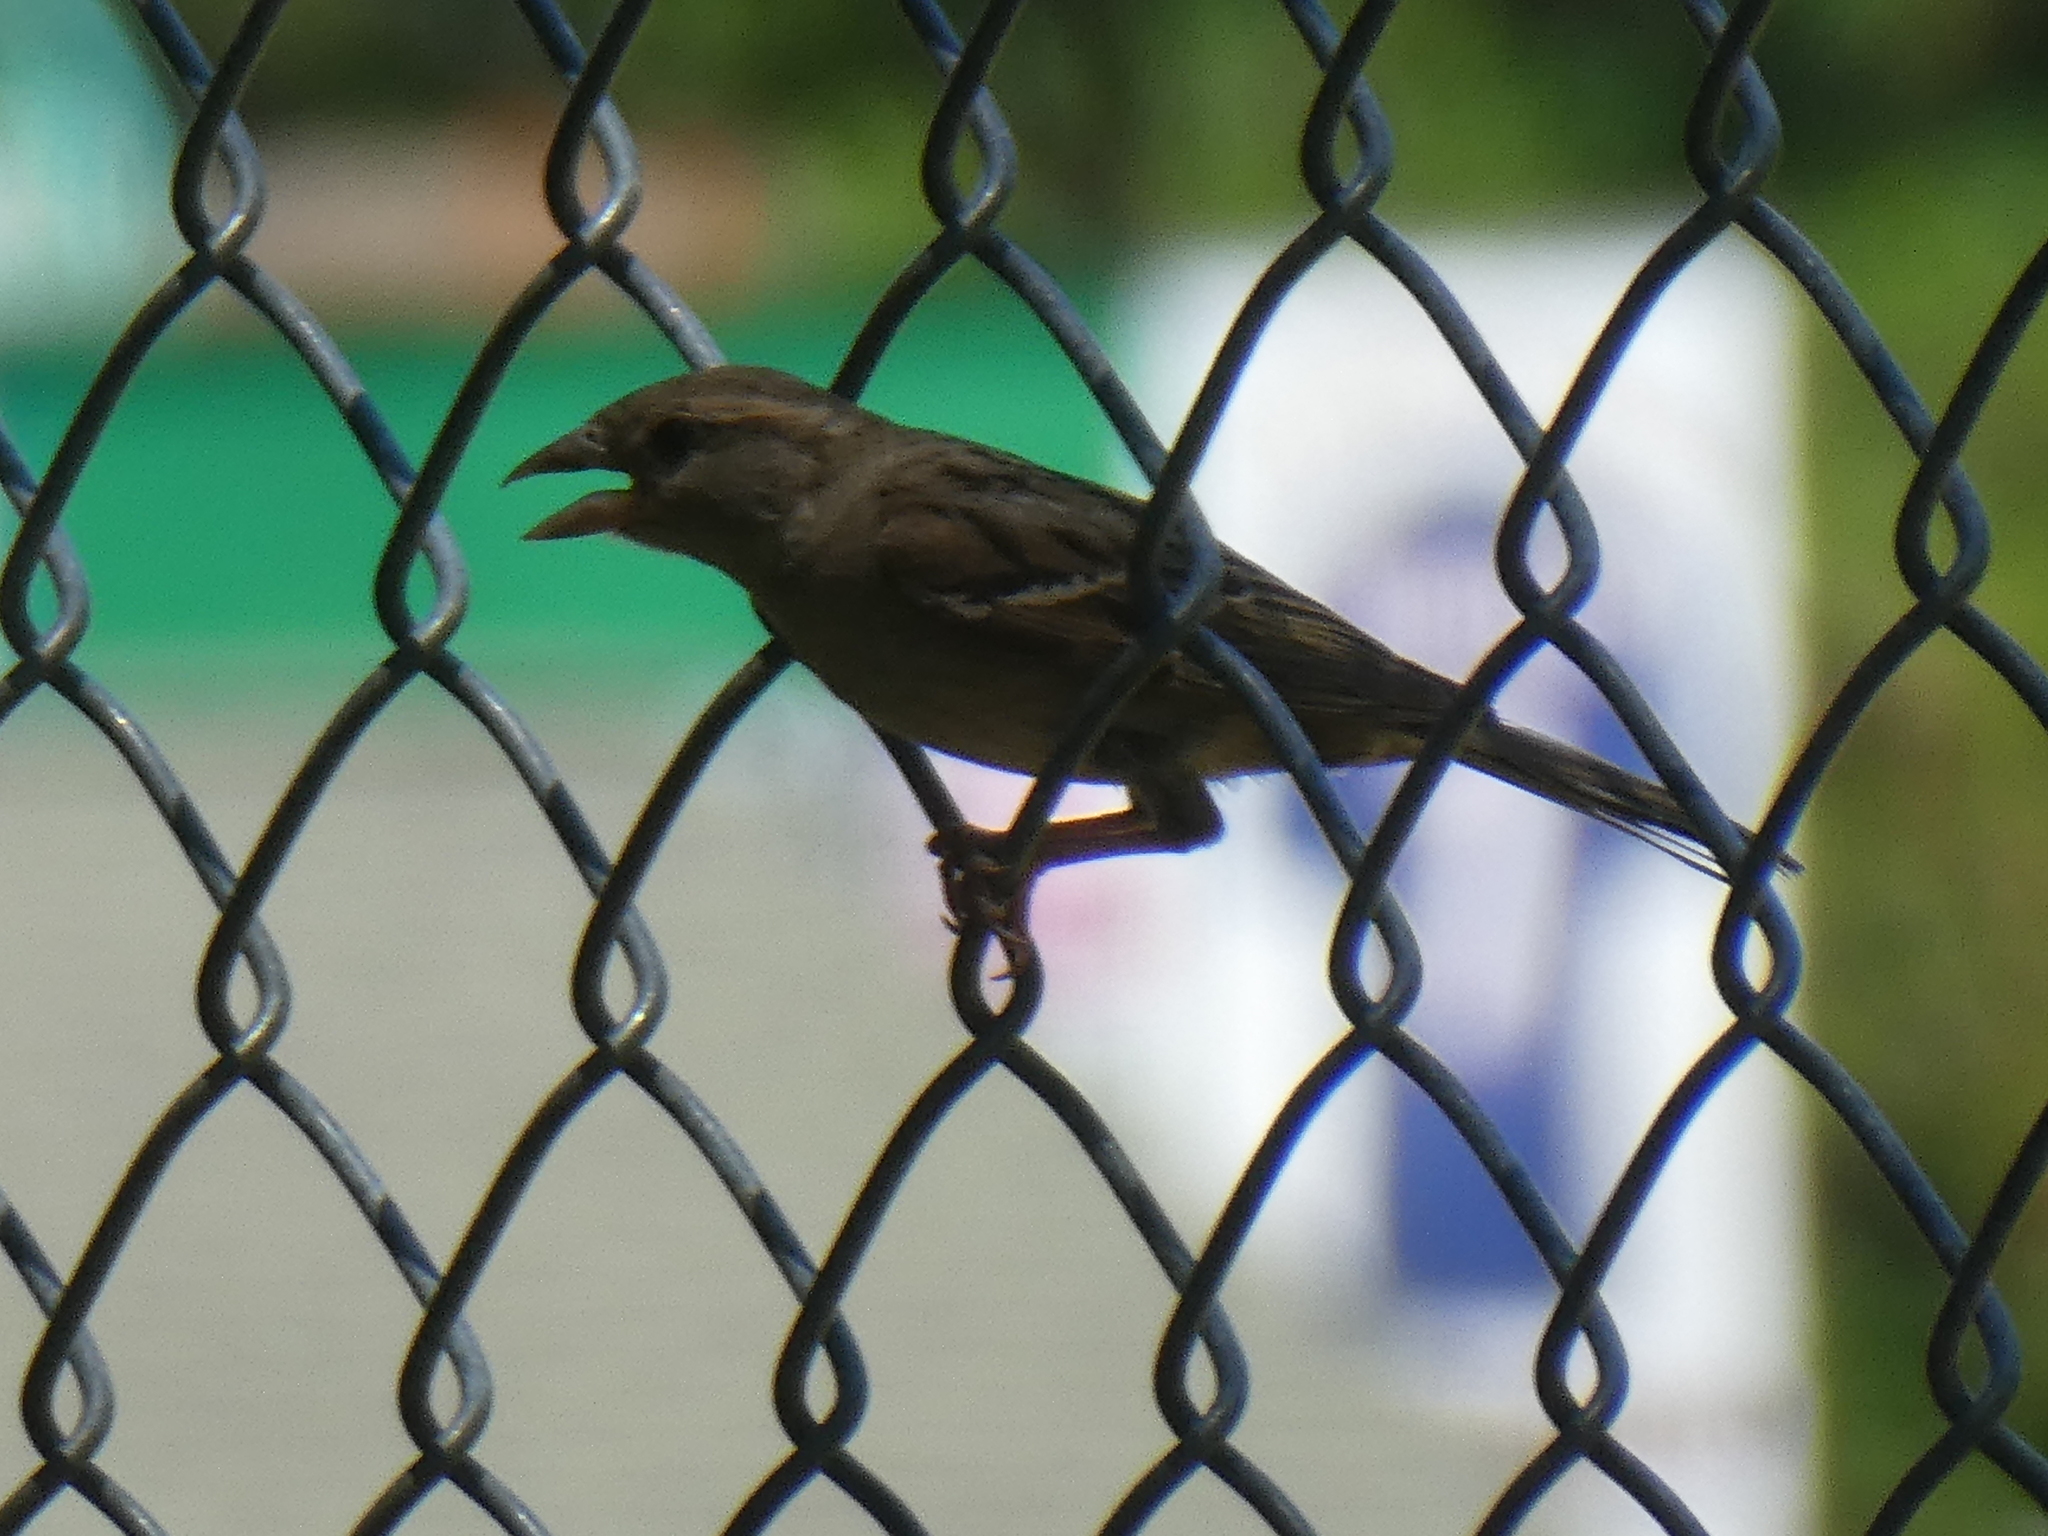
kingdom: Animalia
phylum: Chordata
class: Aves
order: Passeriformes
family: Passeridae
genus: Passer
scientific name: Passer domesticus
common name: House sparrow
